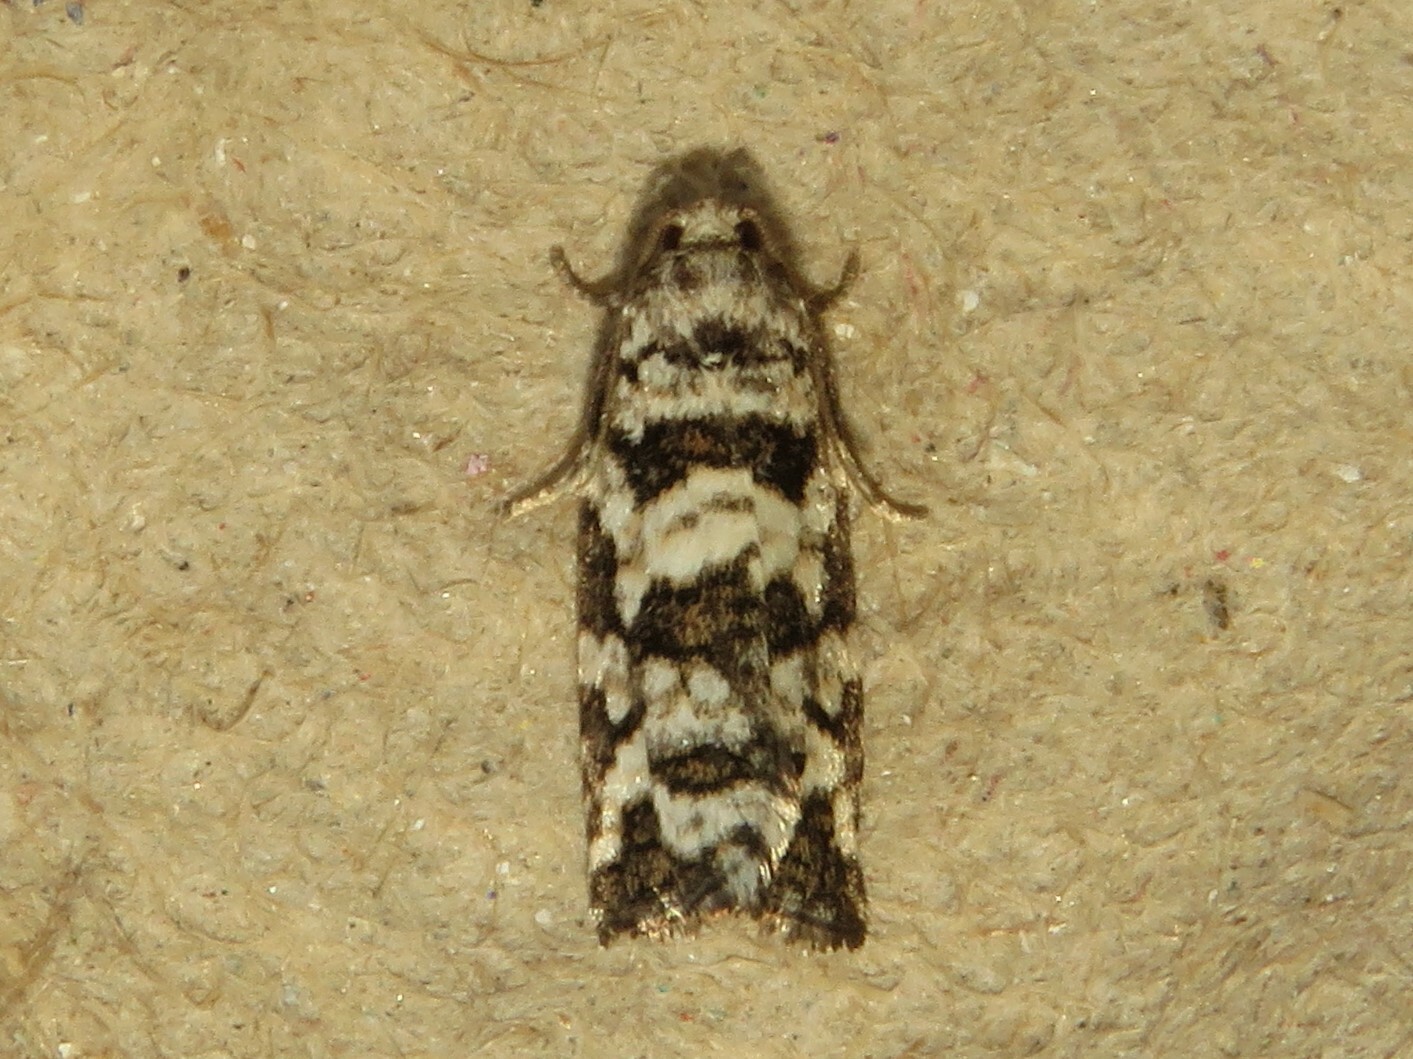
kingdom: Animalia
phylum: Arthropoda
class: Insecta
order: Lepidoptera
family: Tortricidae
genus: Archips
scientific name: Archips packardiana
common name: Spring spruce needle moth
